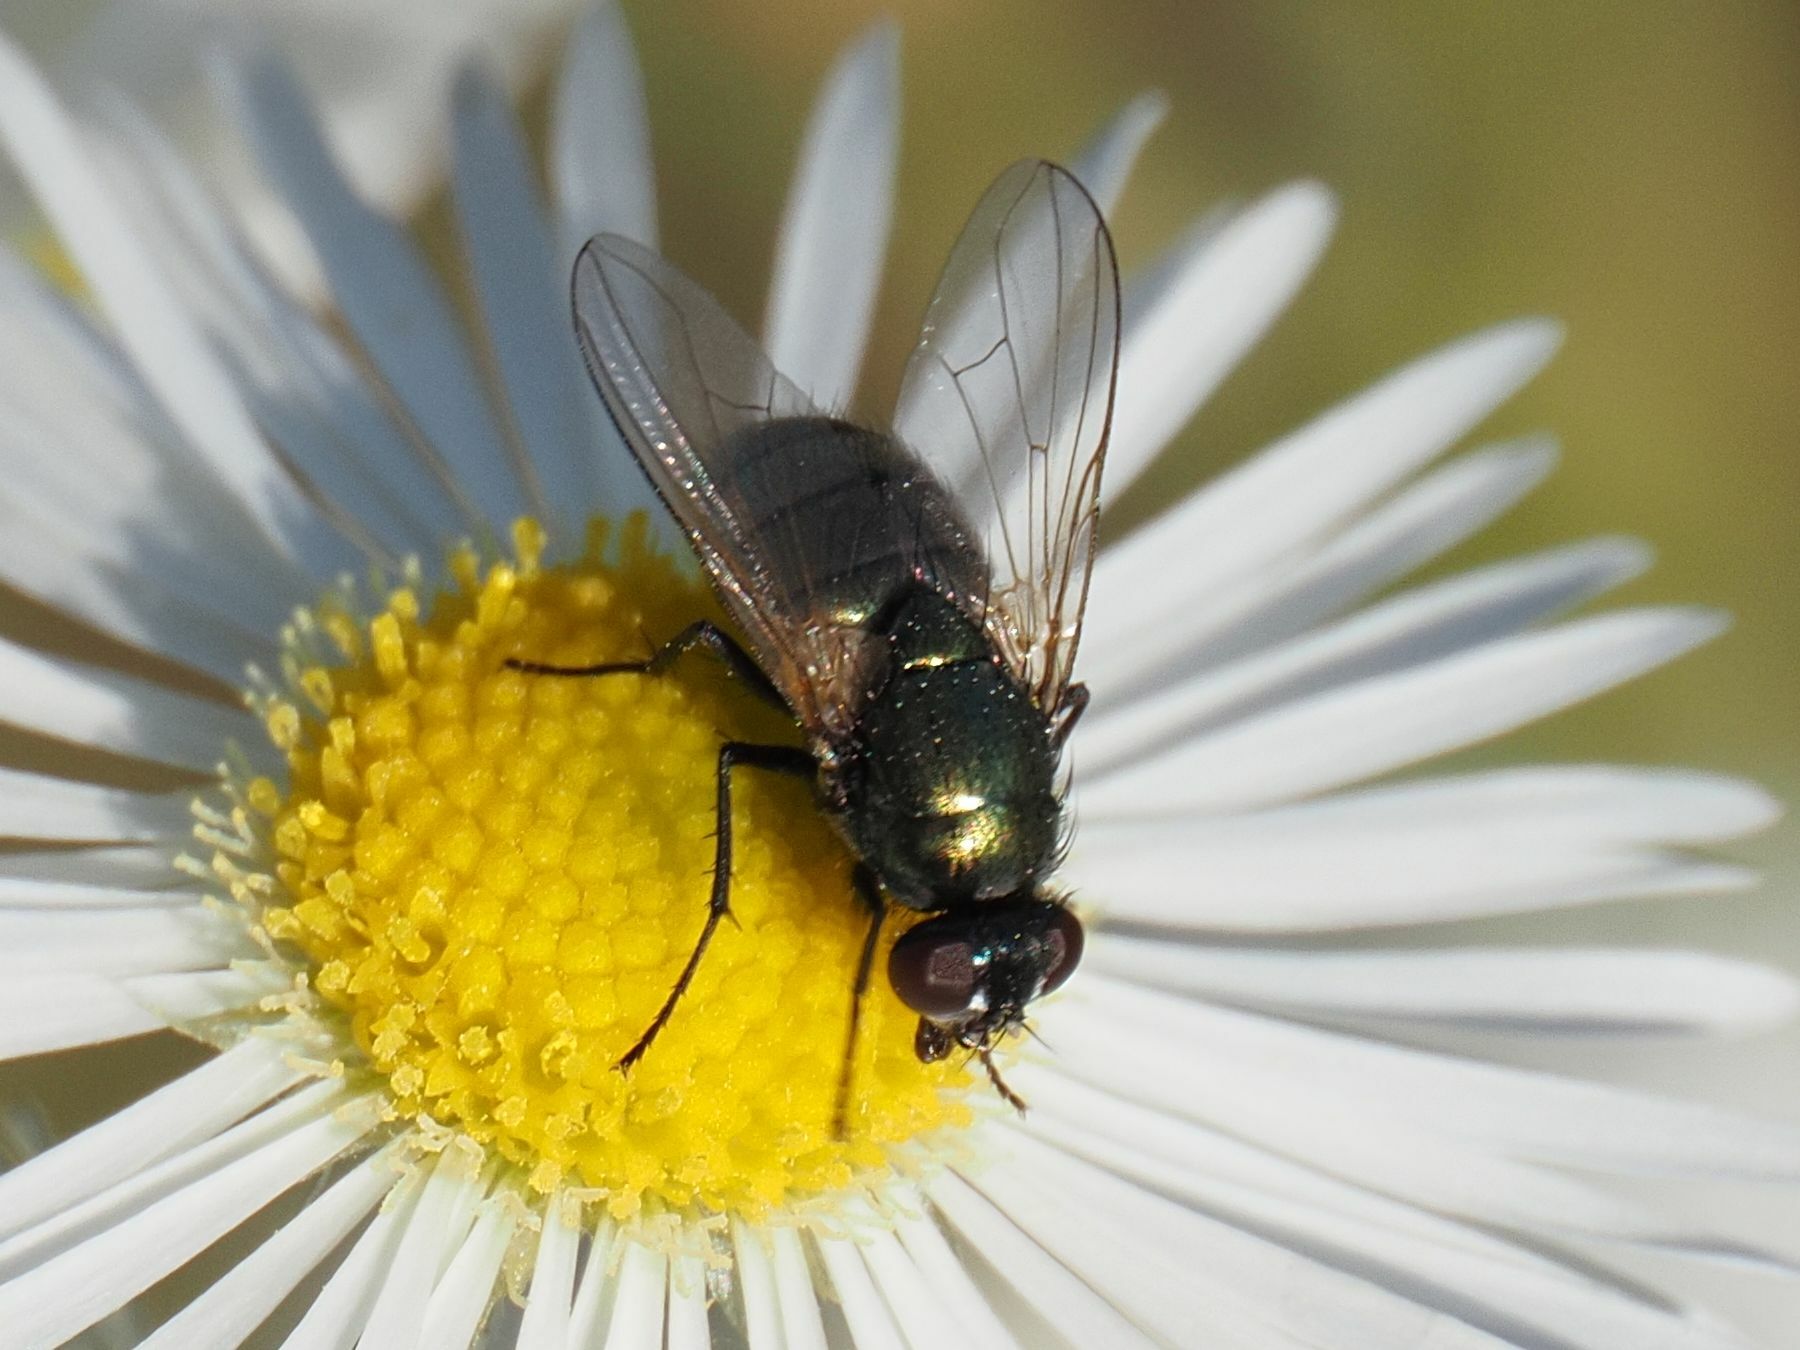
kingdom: Animalia
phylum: Arthropoda
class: Insecta
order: Diptera
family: Muscidae
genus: Pyrellia
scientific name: Pyrellia rapax
